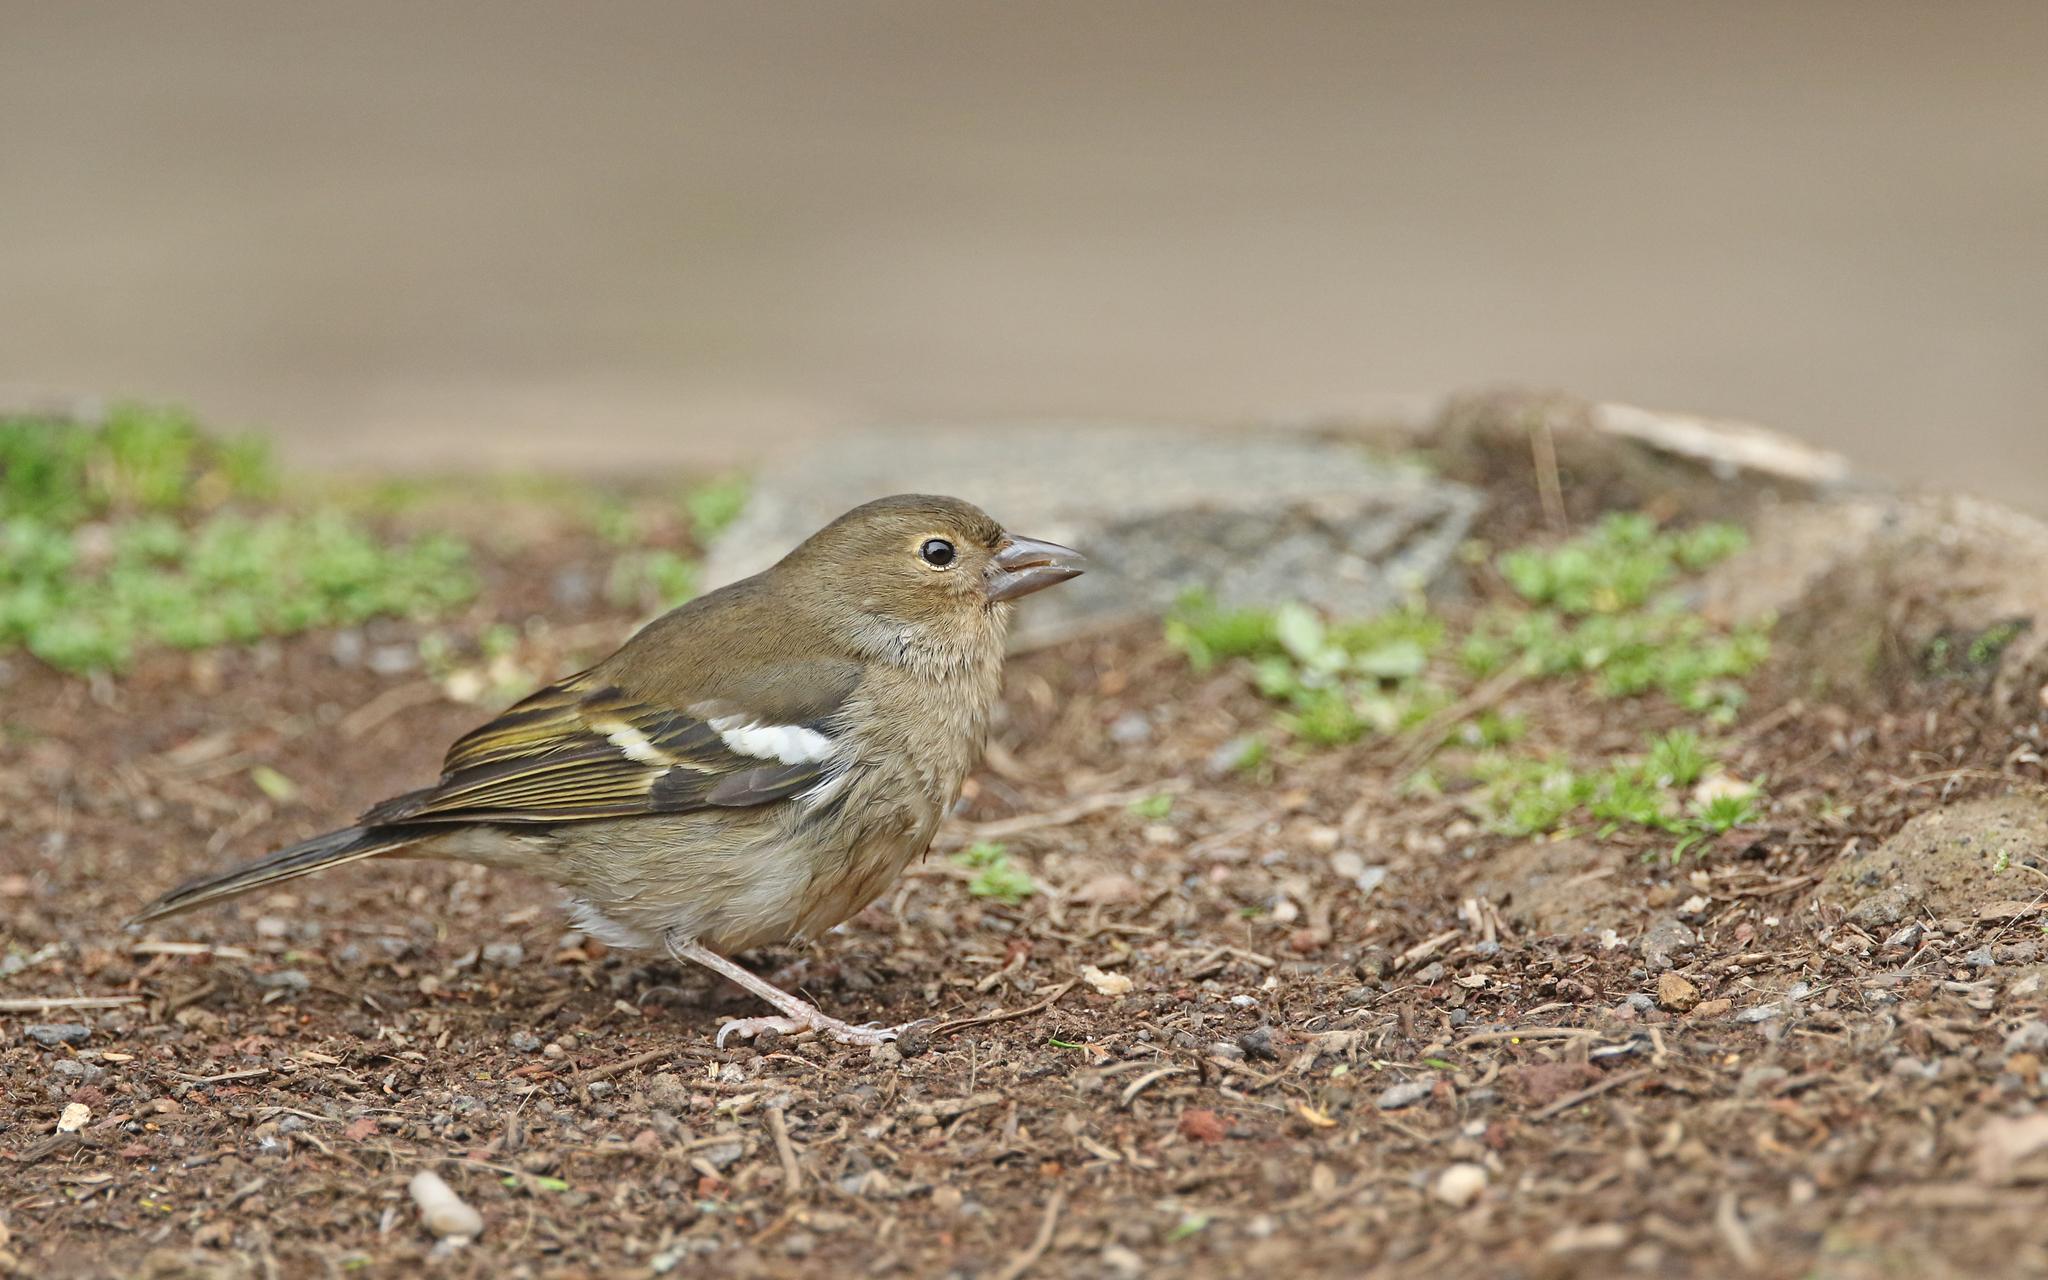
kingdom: Animalia
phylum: Chordata
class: Aves
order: Passeriformes
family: Fringillidae
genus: Fringilla
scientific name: Fringilla canariensis
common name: Canary islands chaffinch
